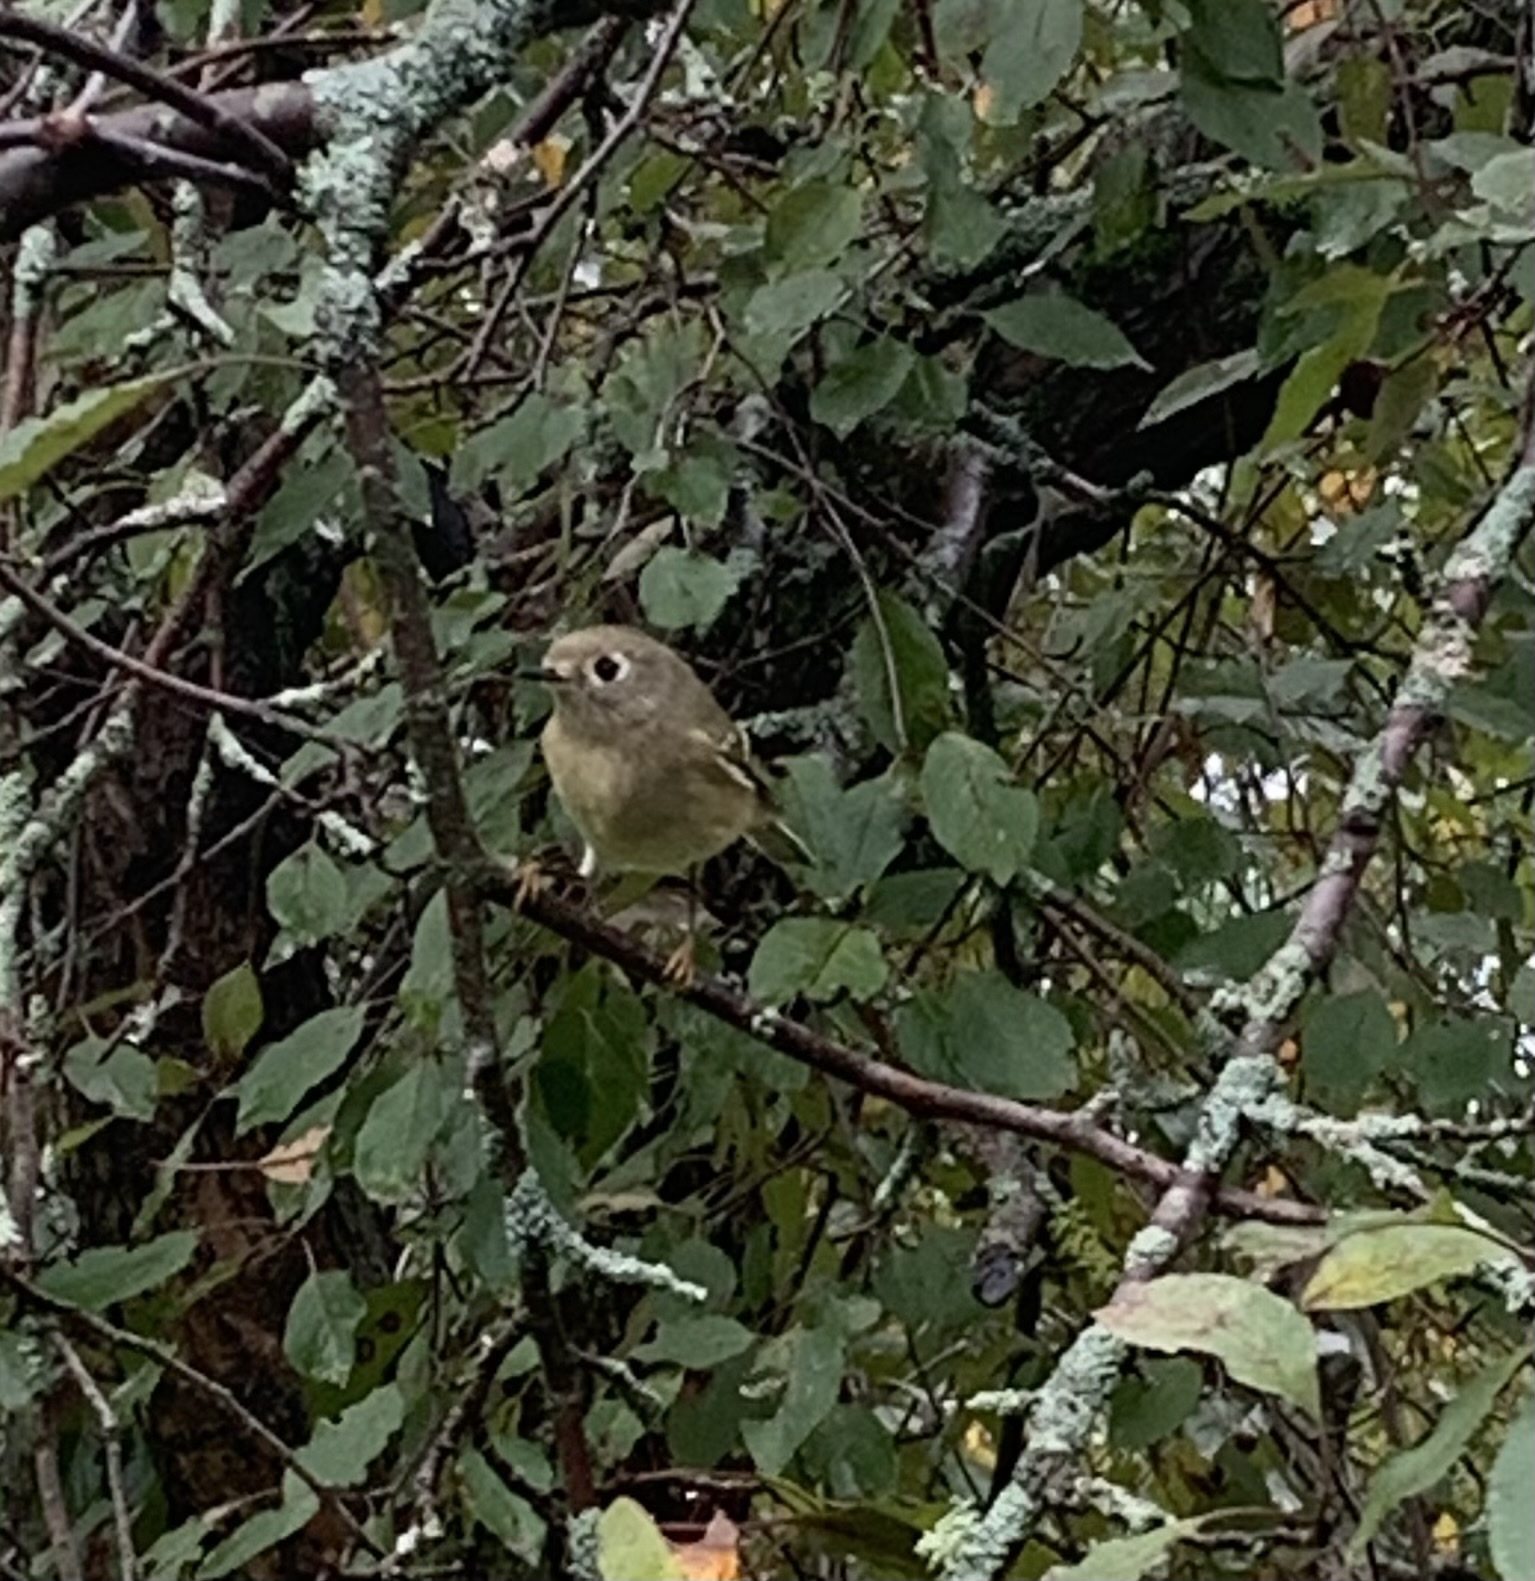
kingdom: Animalia
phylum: Chordata
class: Aves
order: Passeriformes
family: Regulidae
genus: Regulus
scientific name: Regulus calendula
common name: Ruby-crowned kinglet
